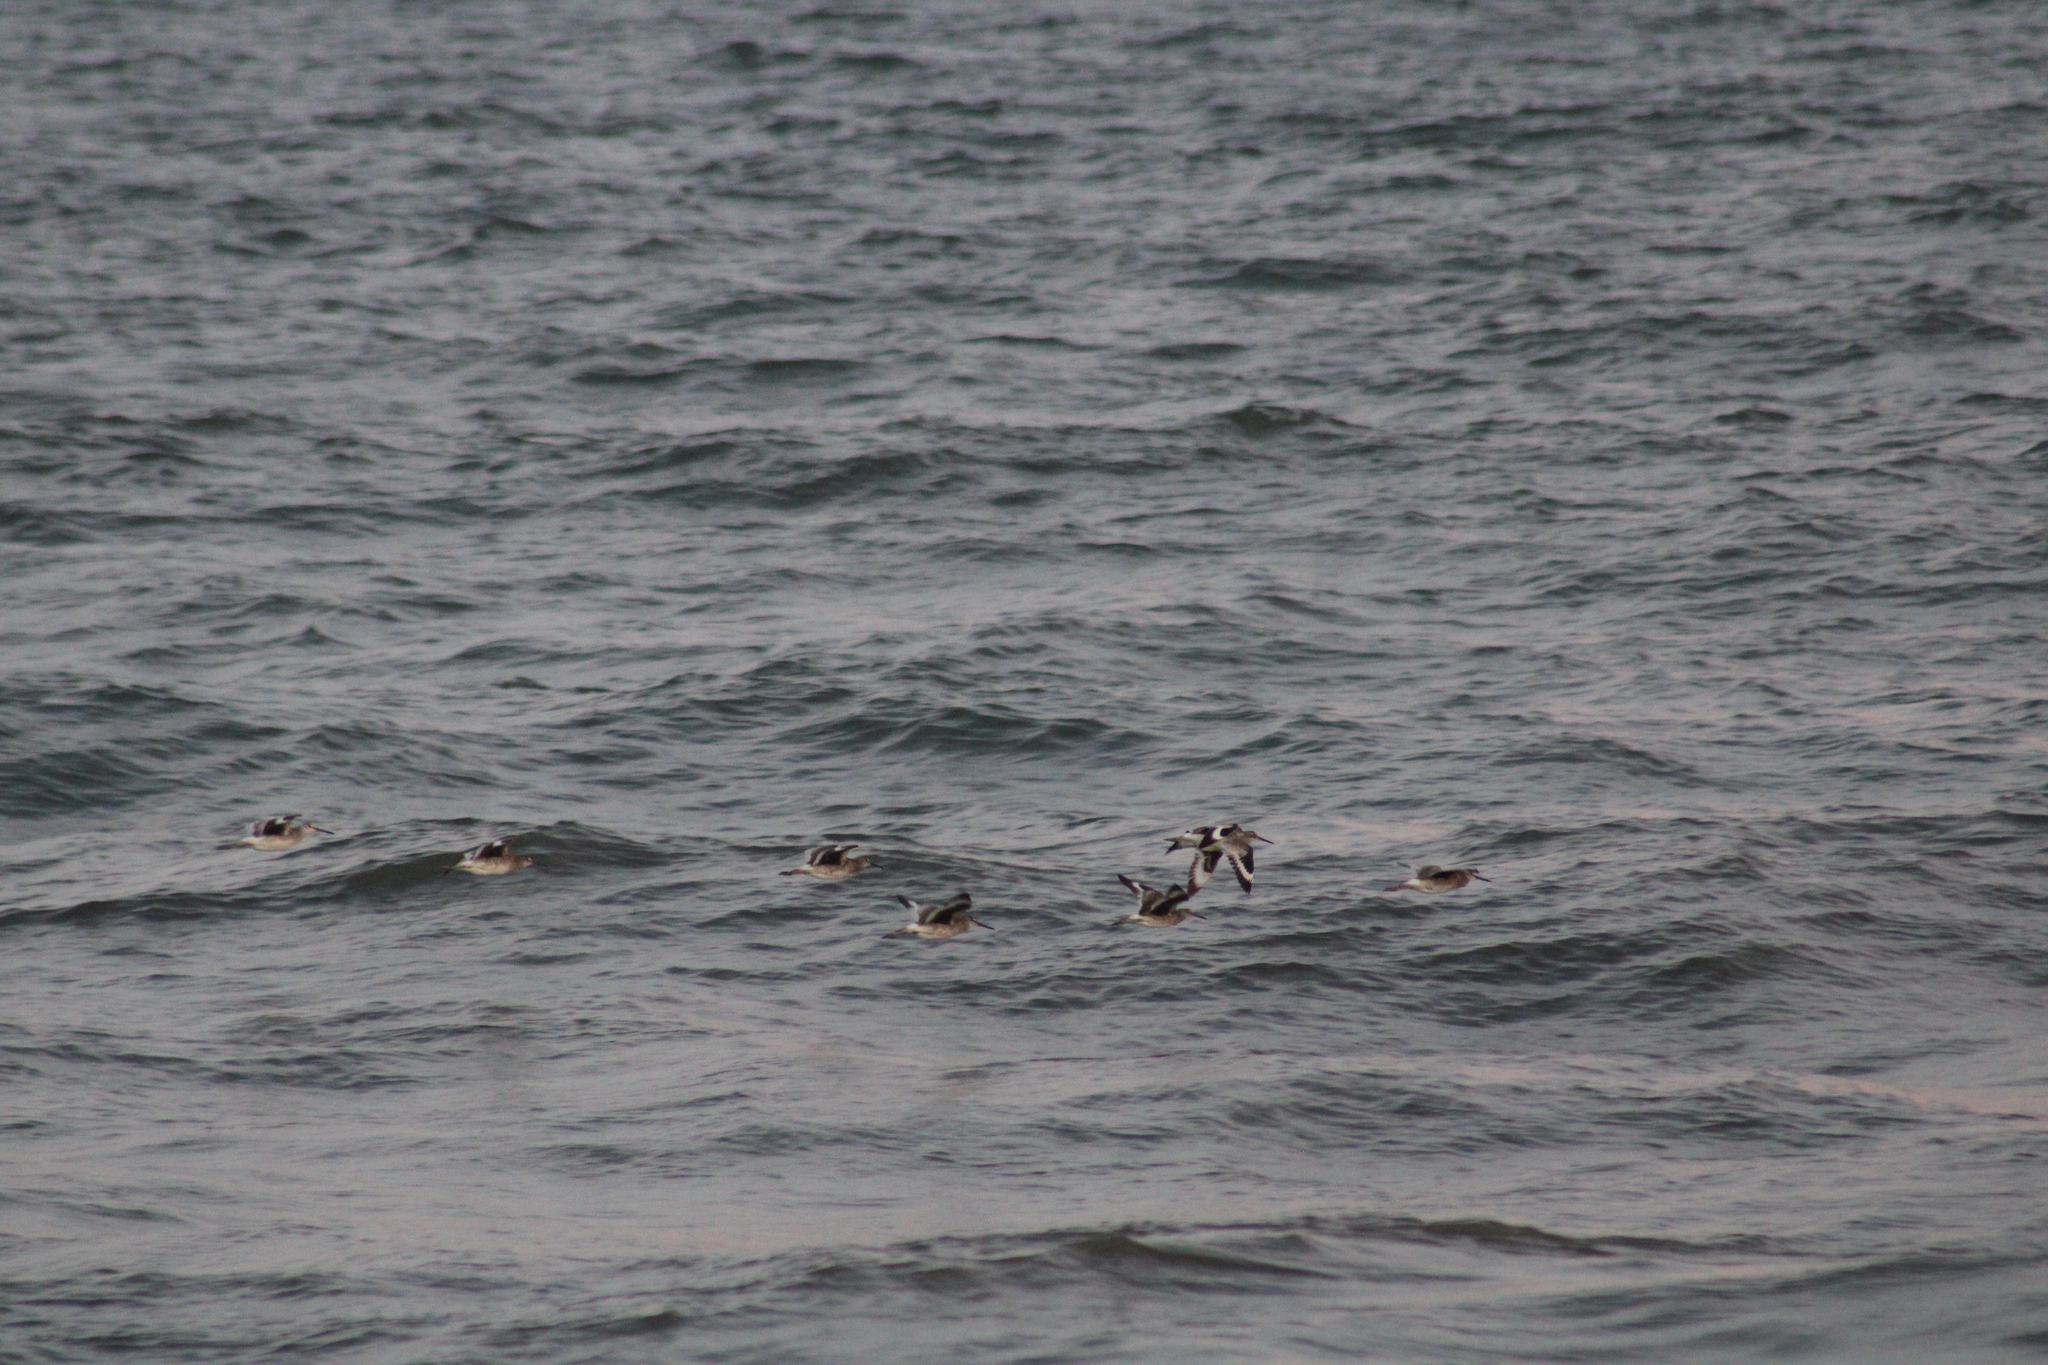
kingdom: Animalia
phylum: Chordata
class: Aves
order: Charadriiformes
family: Scolopacidae
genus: Tringa
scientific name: Tringa semipalmata
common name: Willet
